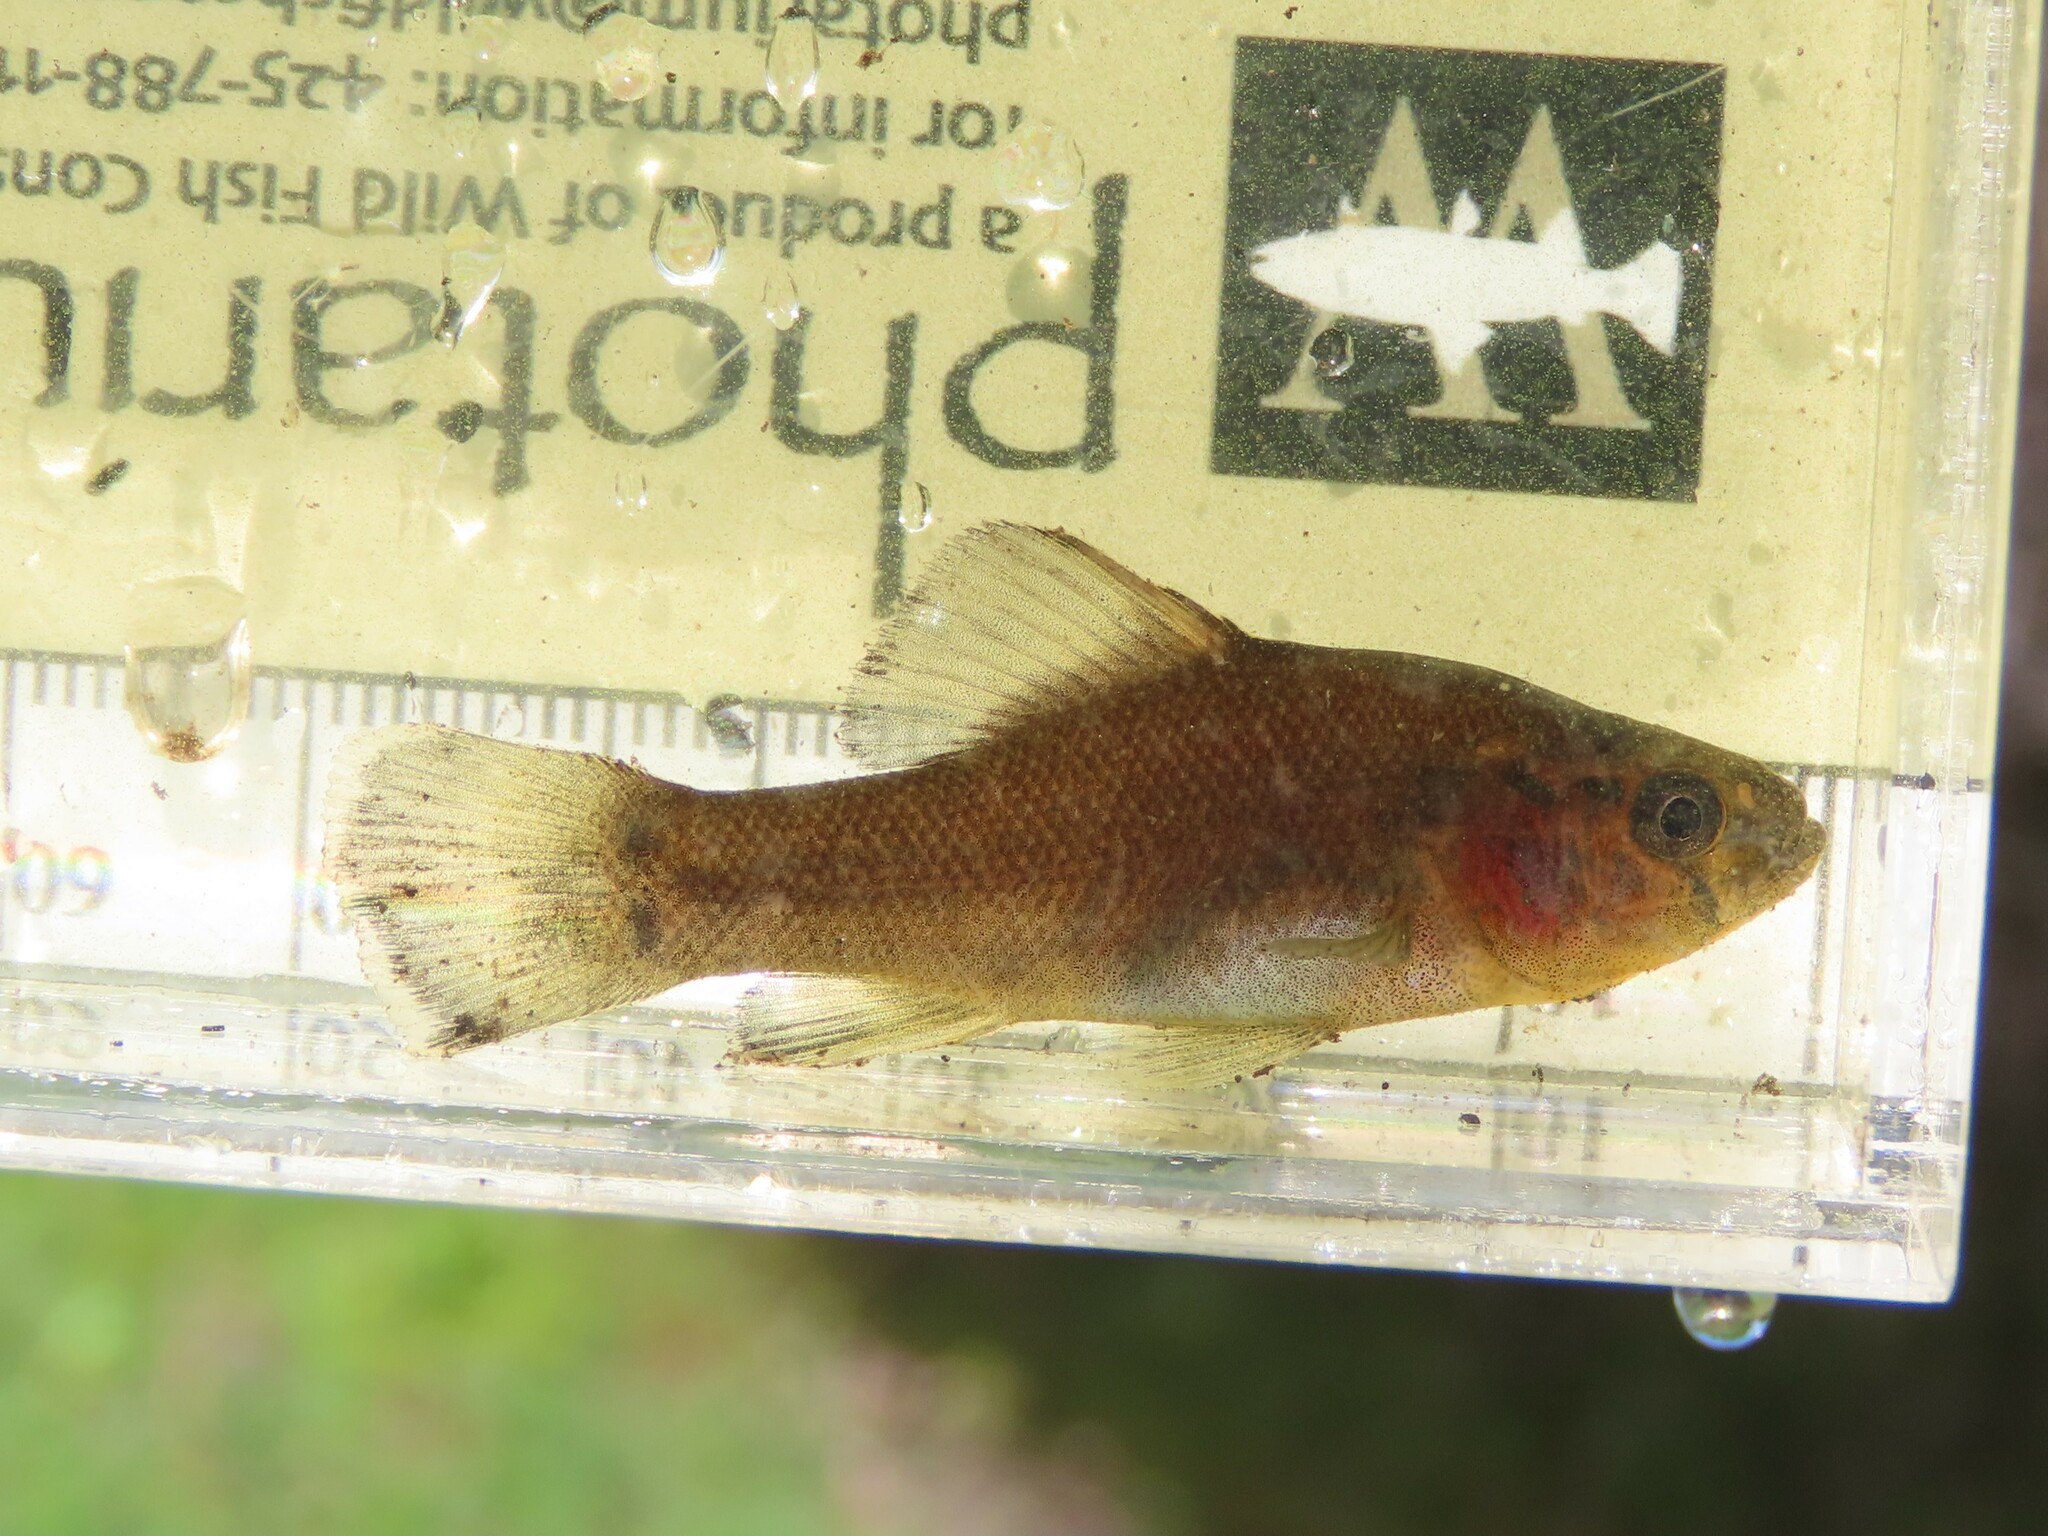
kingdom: Animalia
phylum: Chordata
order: Percopsiformes
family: Aphredoderidae
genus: Aphredoderus
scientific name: Aphredoderus sayanus
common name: Pirate perch
